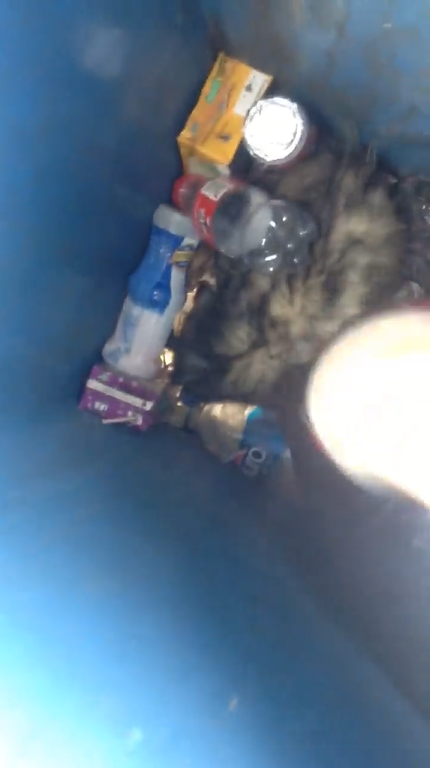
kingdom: Animalia
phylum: Chordata
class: Mammalia
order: Didelphimorphia
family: Didelphidae
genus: Didelphis
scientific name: Didelphis virginiana
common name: Virginia opossum
